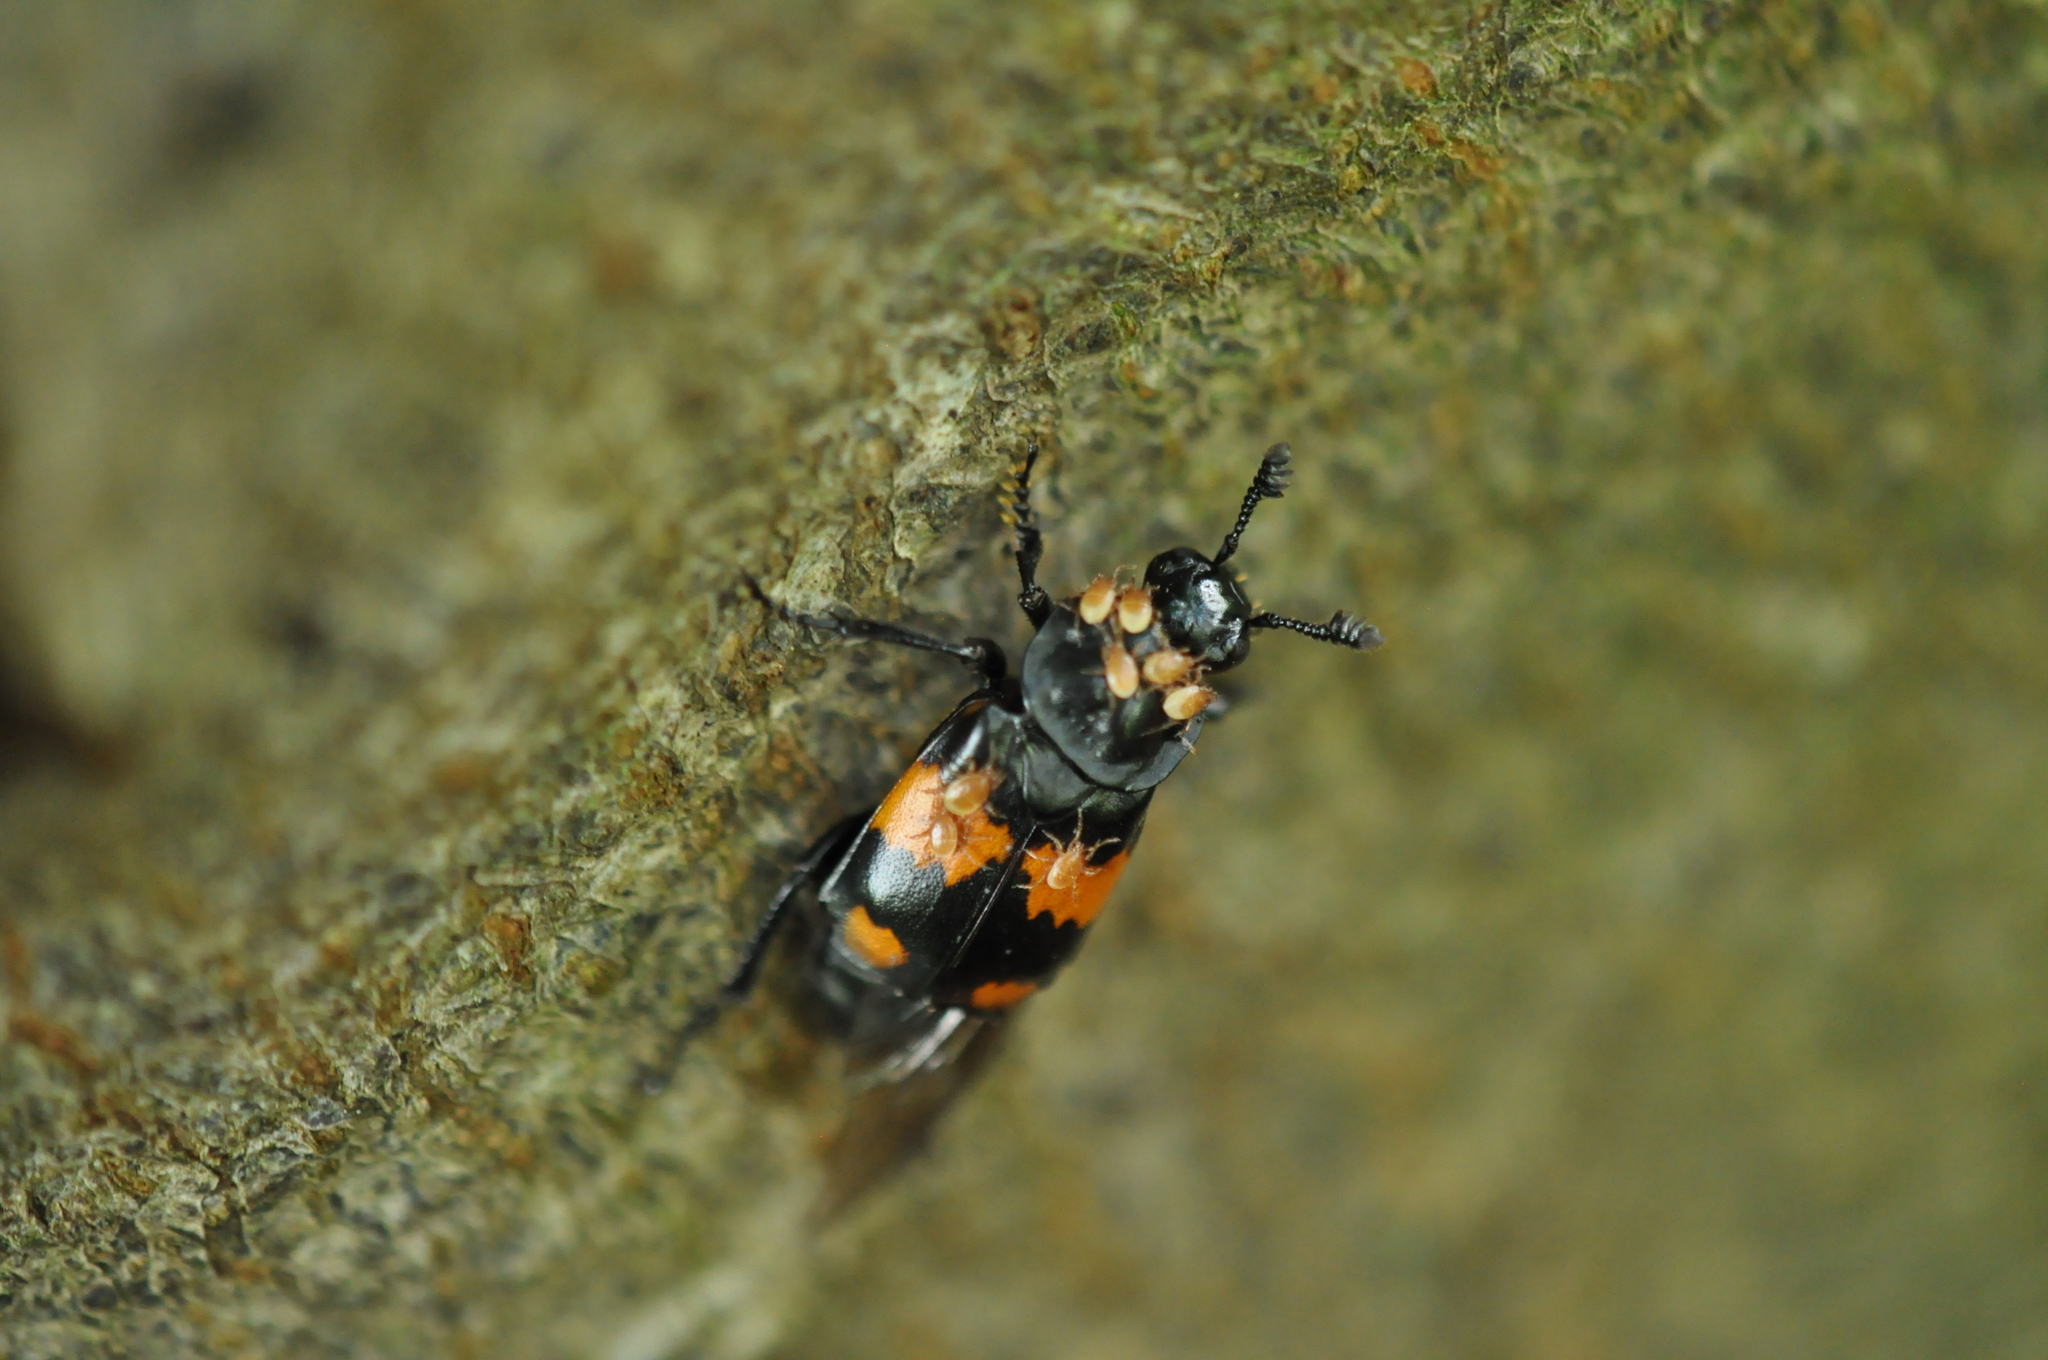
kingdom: Animalia
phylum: Arthropoda
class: Insecta
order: Coleoptera
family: Staphylinidae
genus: Nicrophorus
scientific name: Nicrophorus vespilloides
